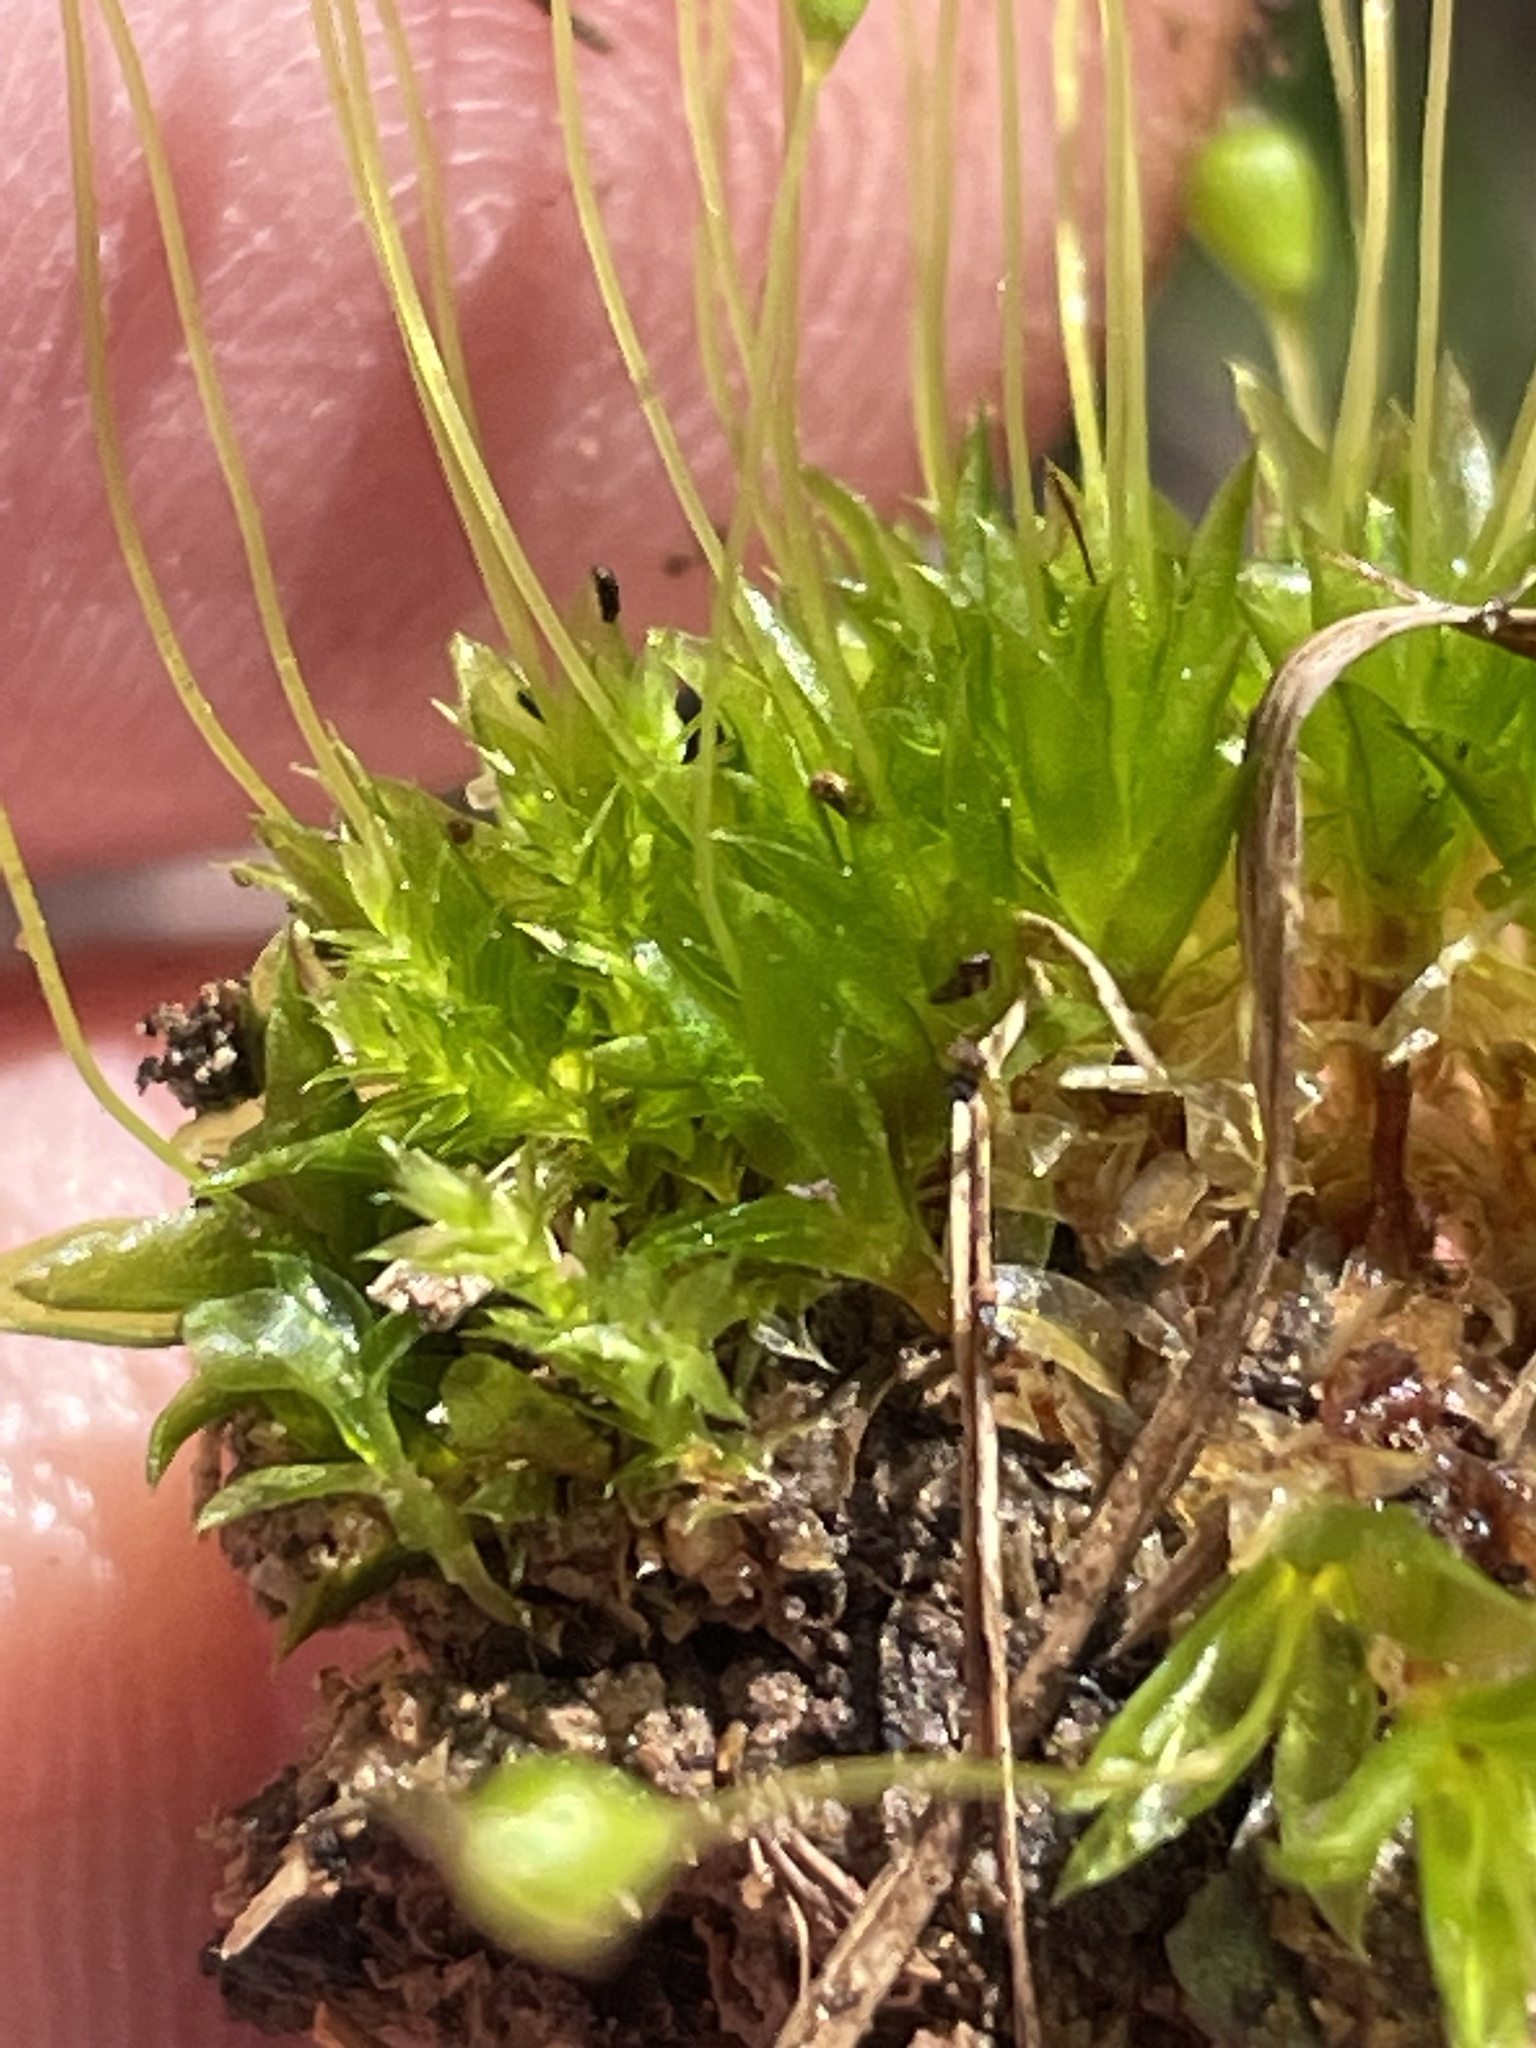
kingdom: Plantae
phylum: Bryophyta
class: Bryopsida
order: Funariales
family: Funariaceae
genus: Physcomitrium
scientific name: Physcomitrium pyriforme
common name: Common bladder-moss
